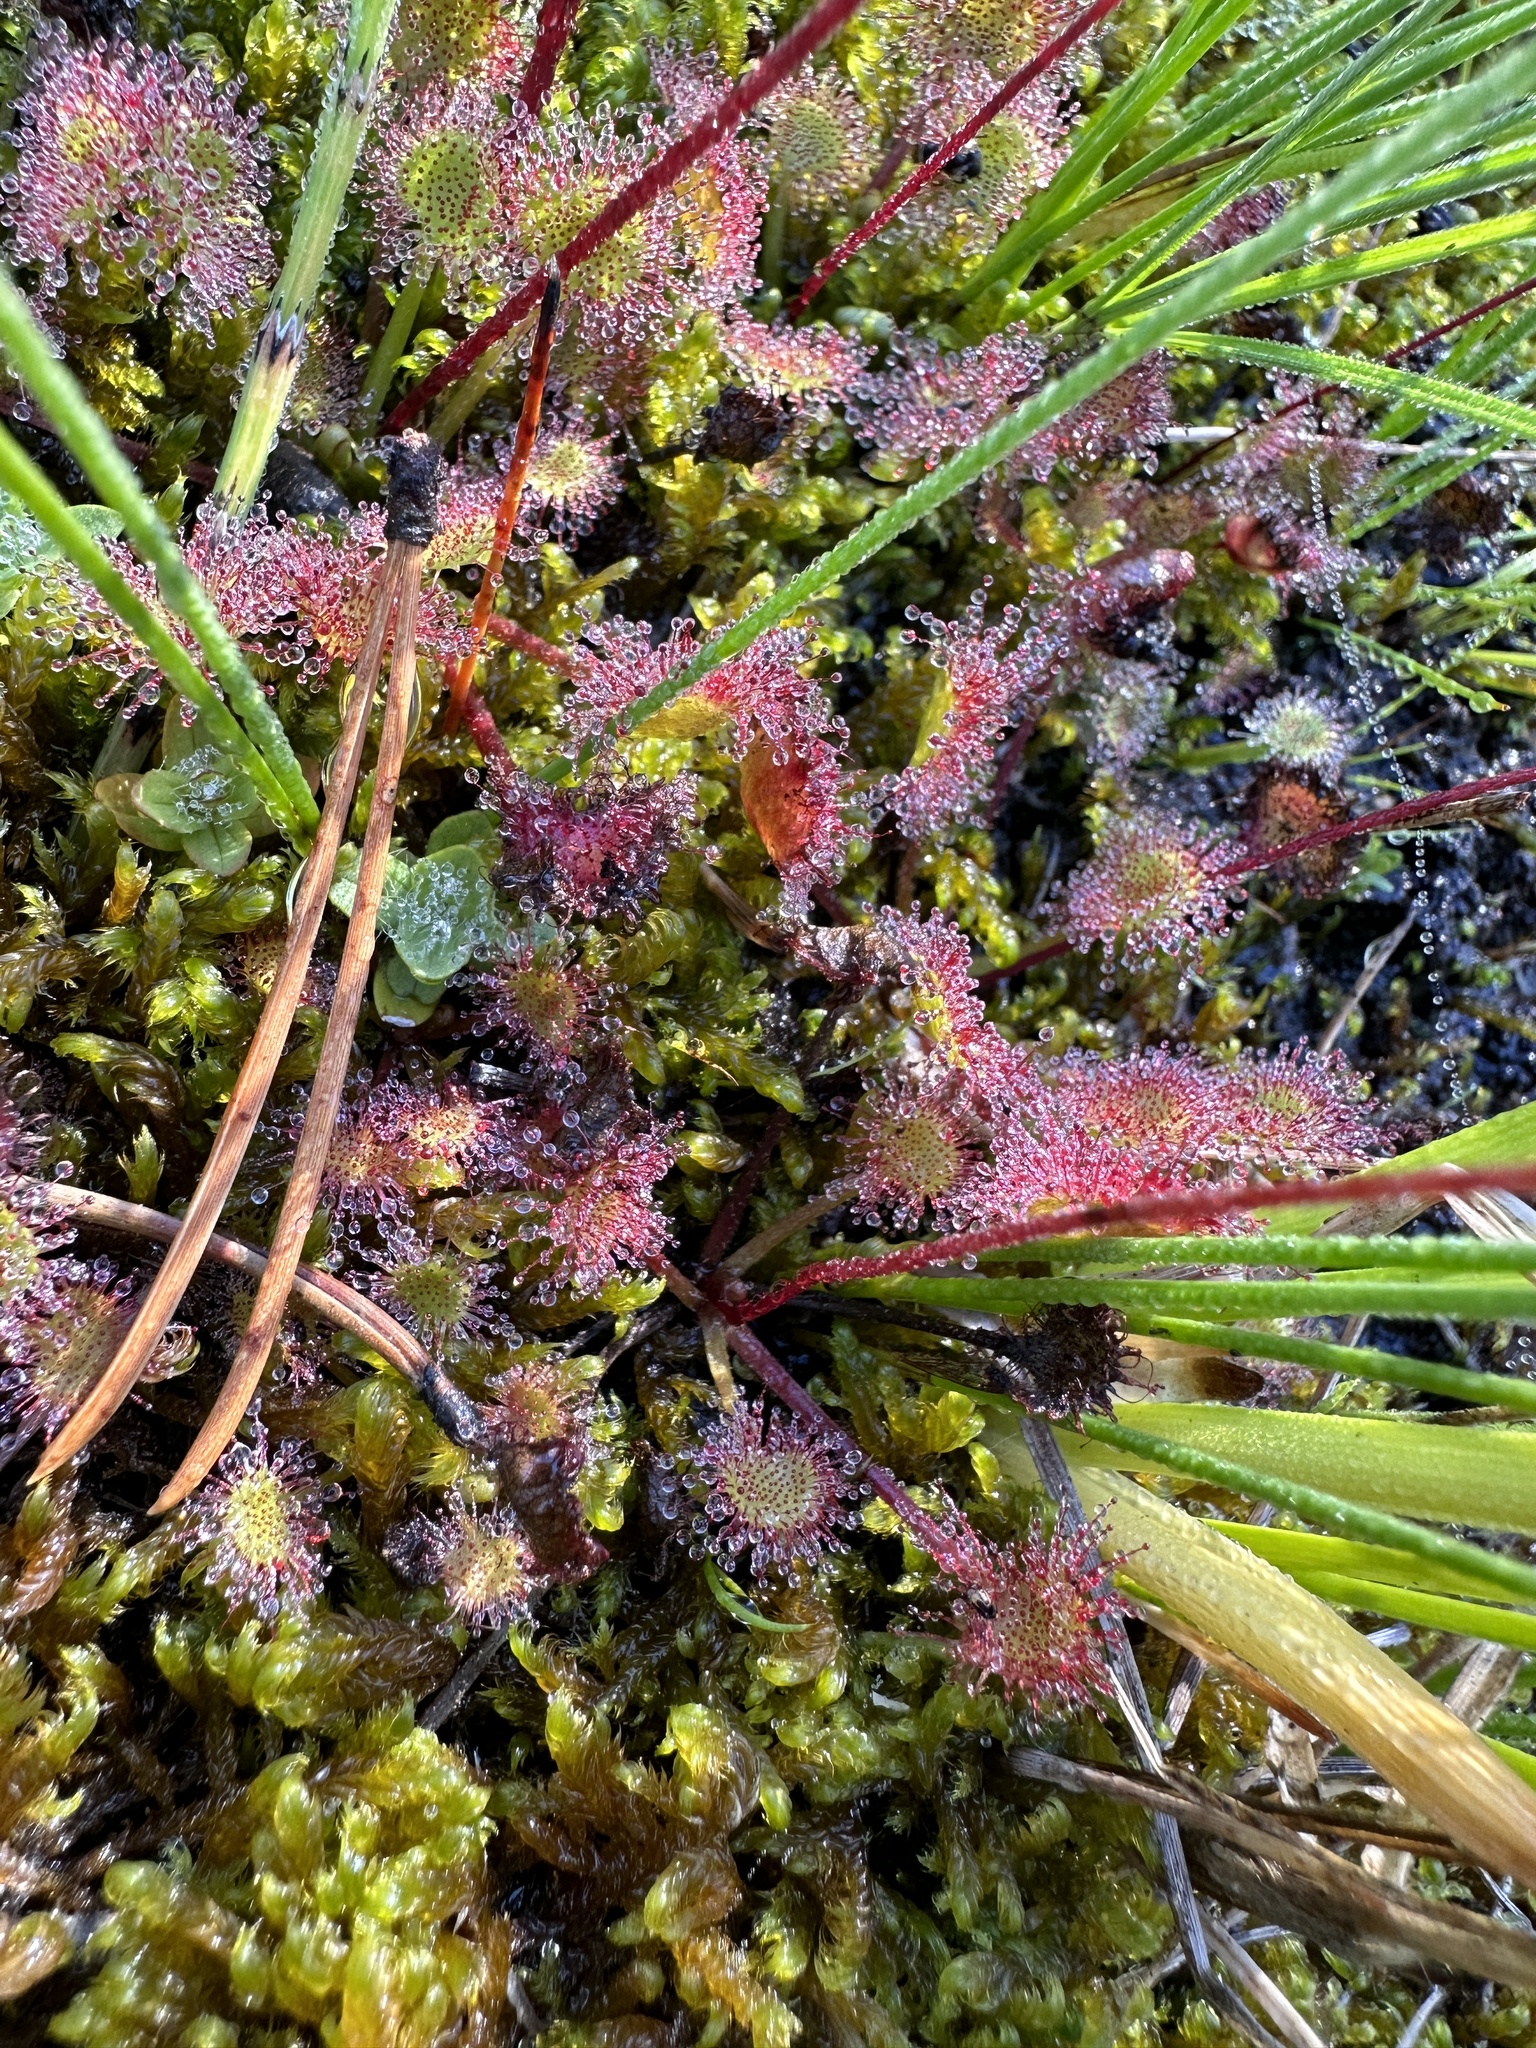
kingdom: Plantae
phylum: Tracheophyta
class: Magnoliopsida
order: Caryophyllales
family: Droseraceae
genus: Drosera
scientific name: Drosera rotundifolia
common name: Round-leaved sundew
